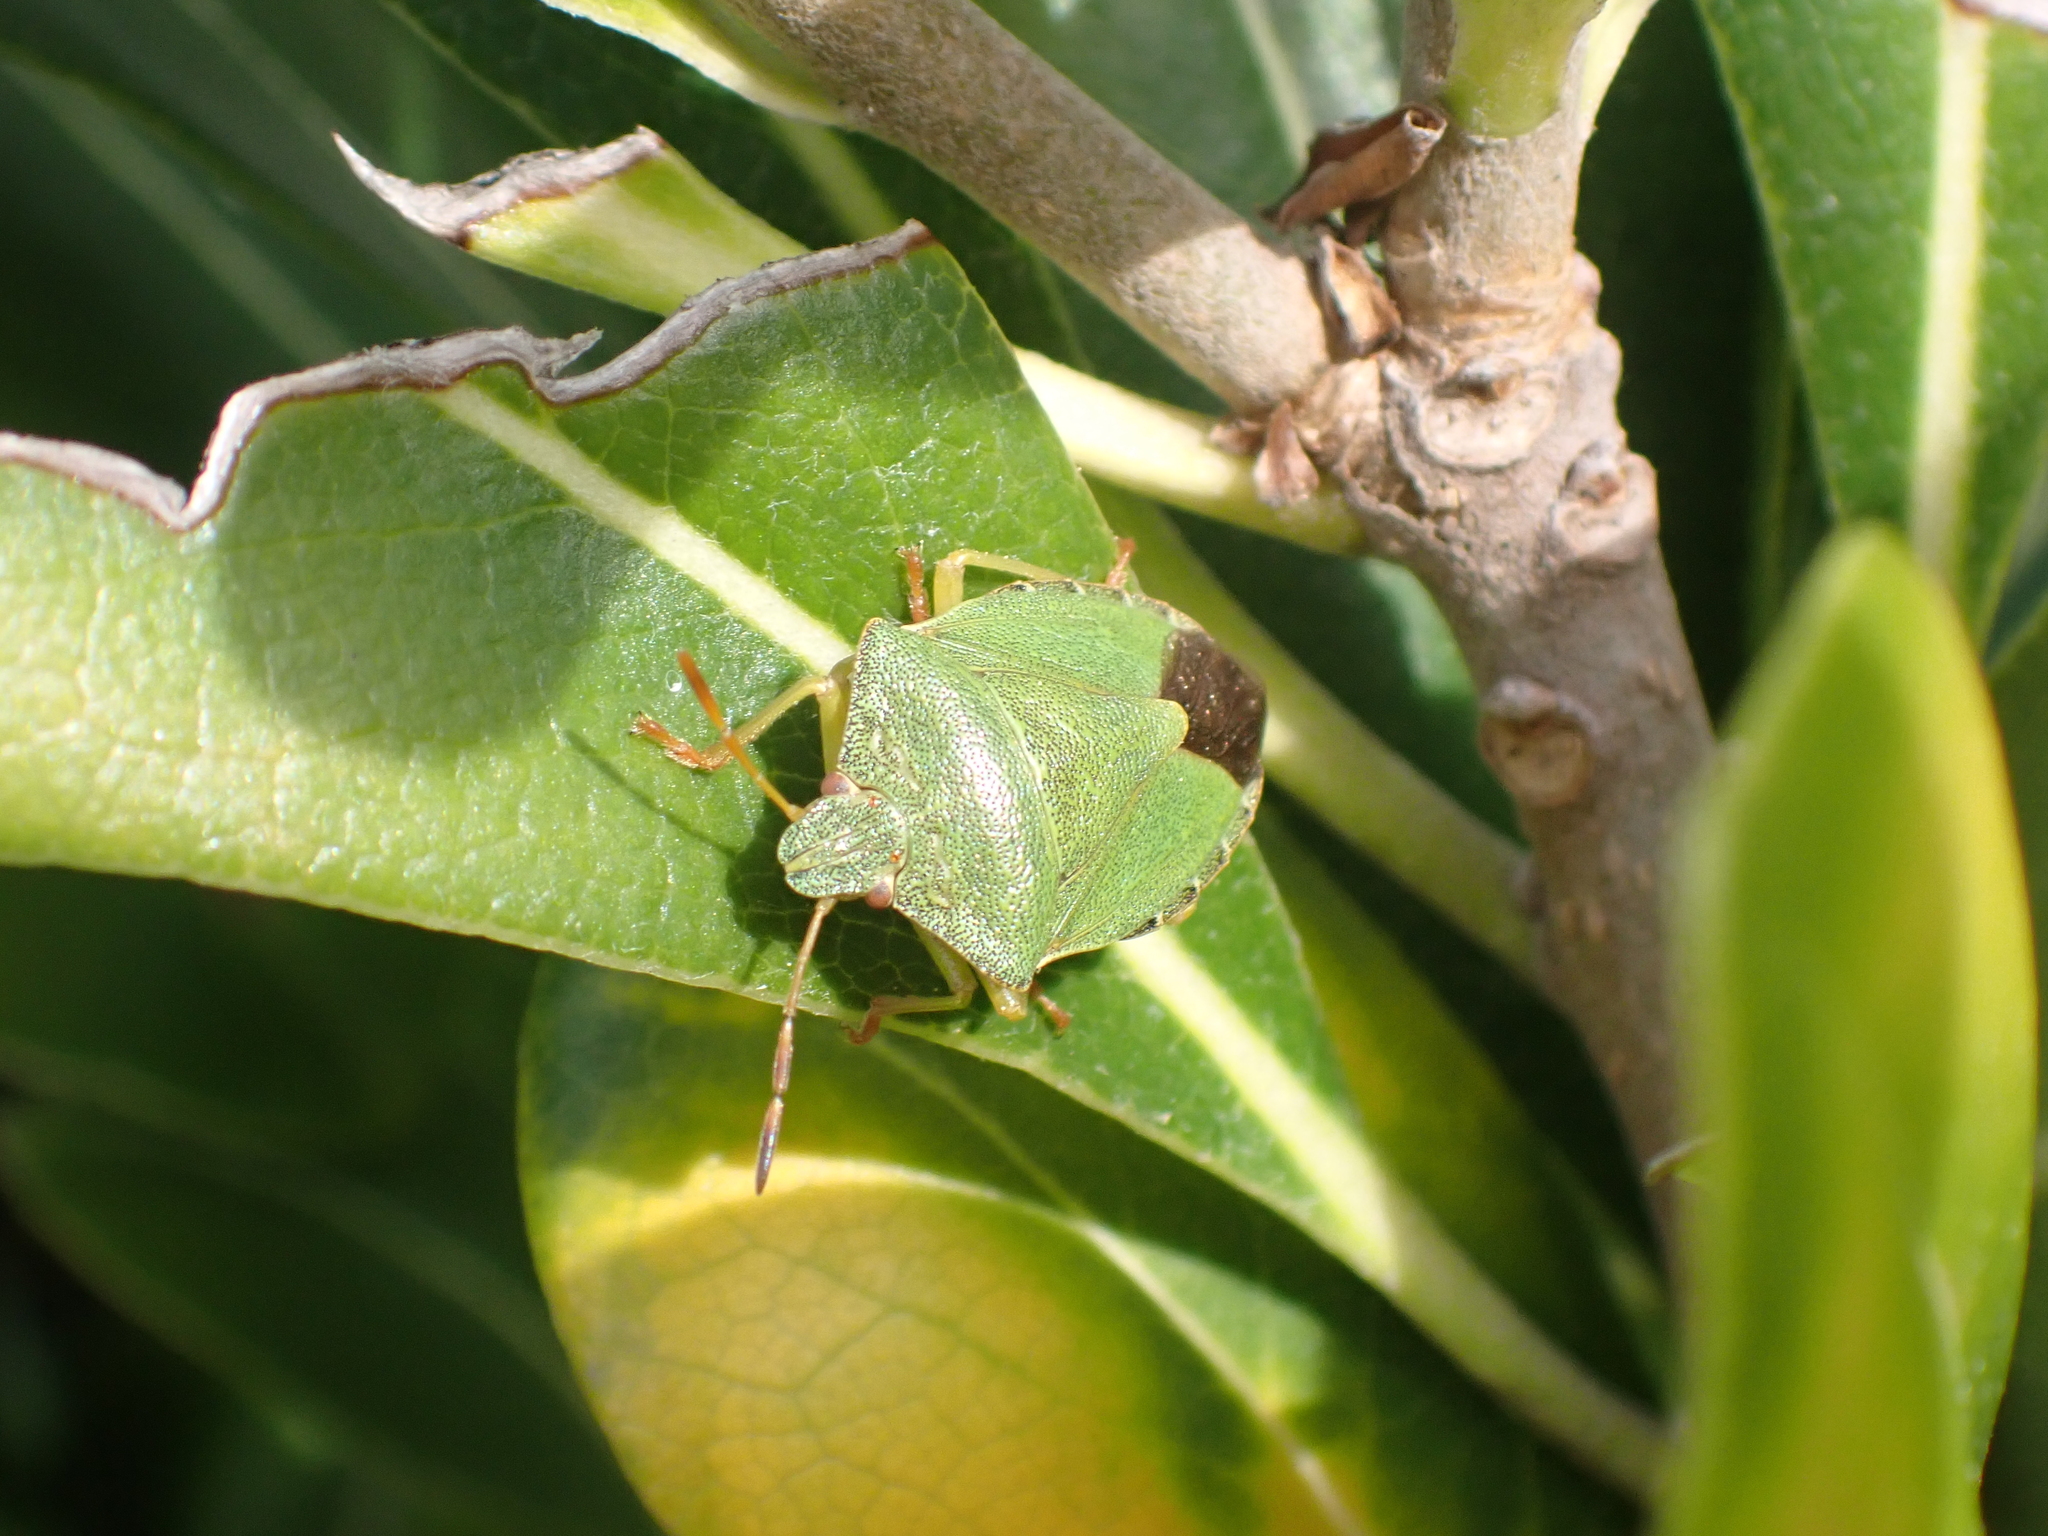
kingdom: Animalia
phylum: Arthropoda
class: Insecta
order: Hemiptera
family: Pentatomidae
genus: Palomena
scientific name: Palomena prasina
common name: Green shieldbug
